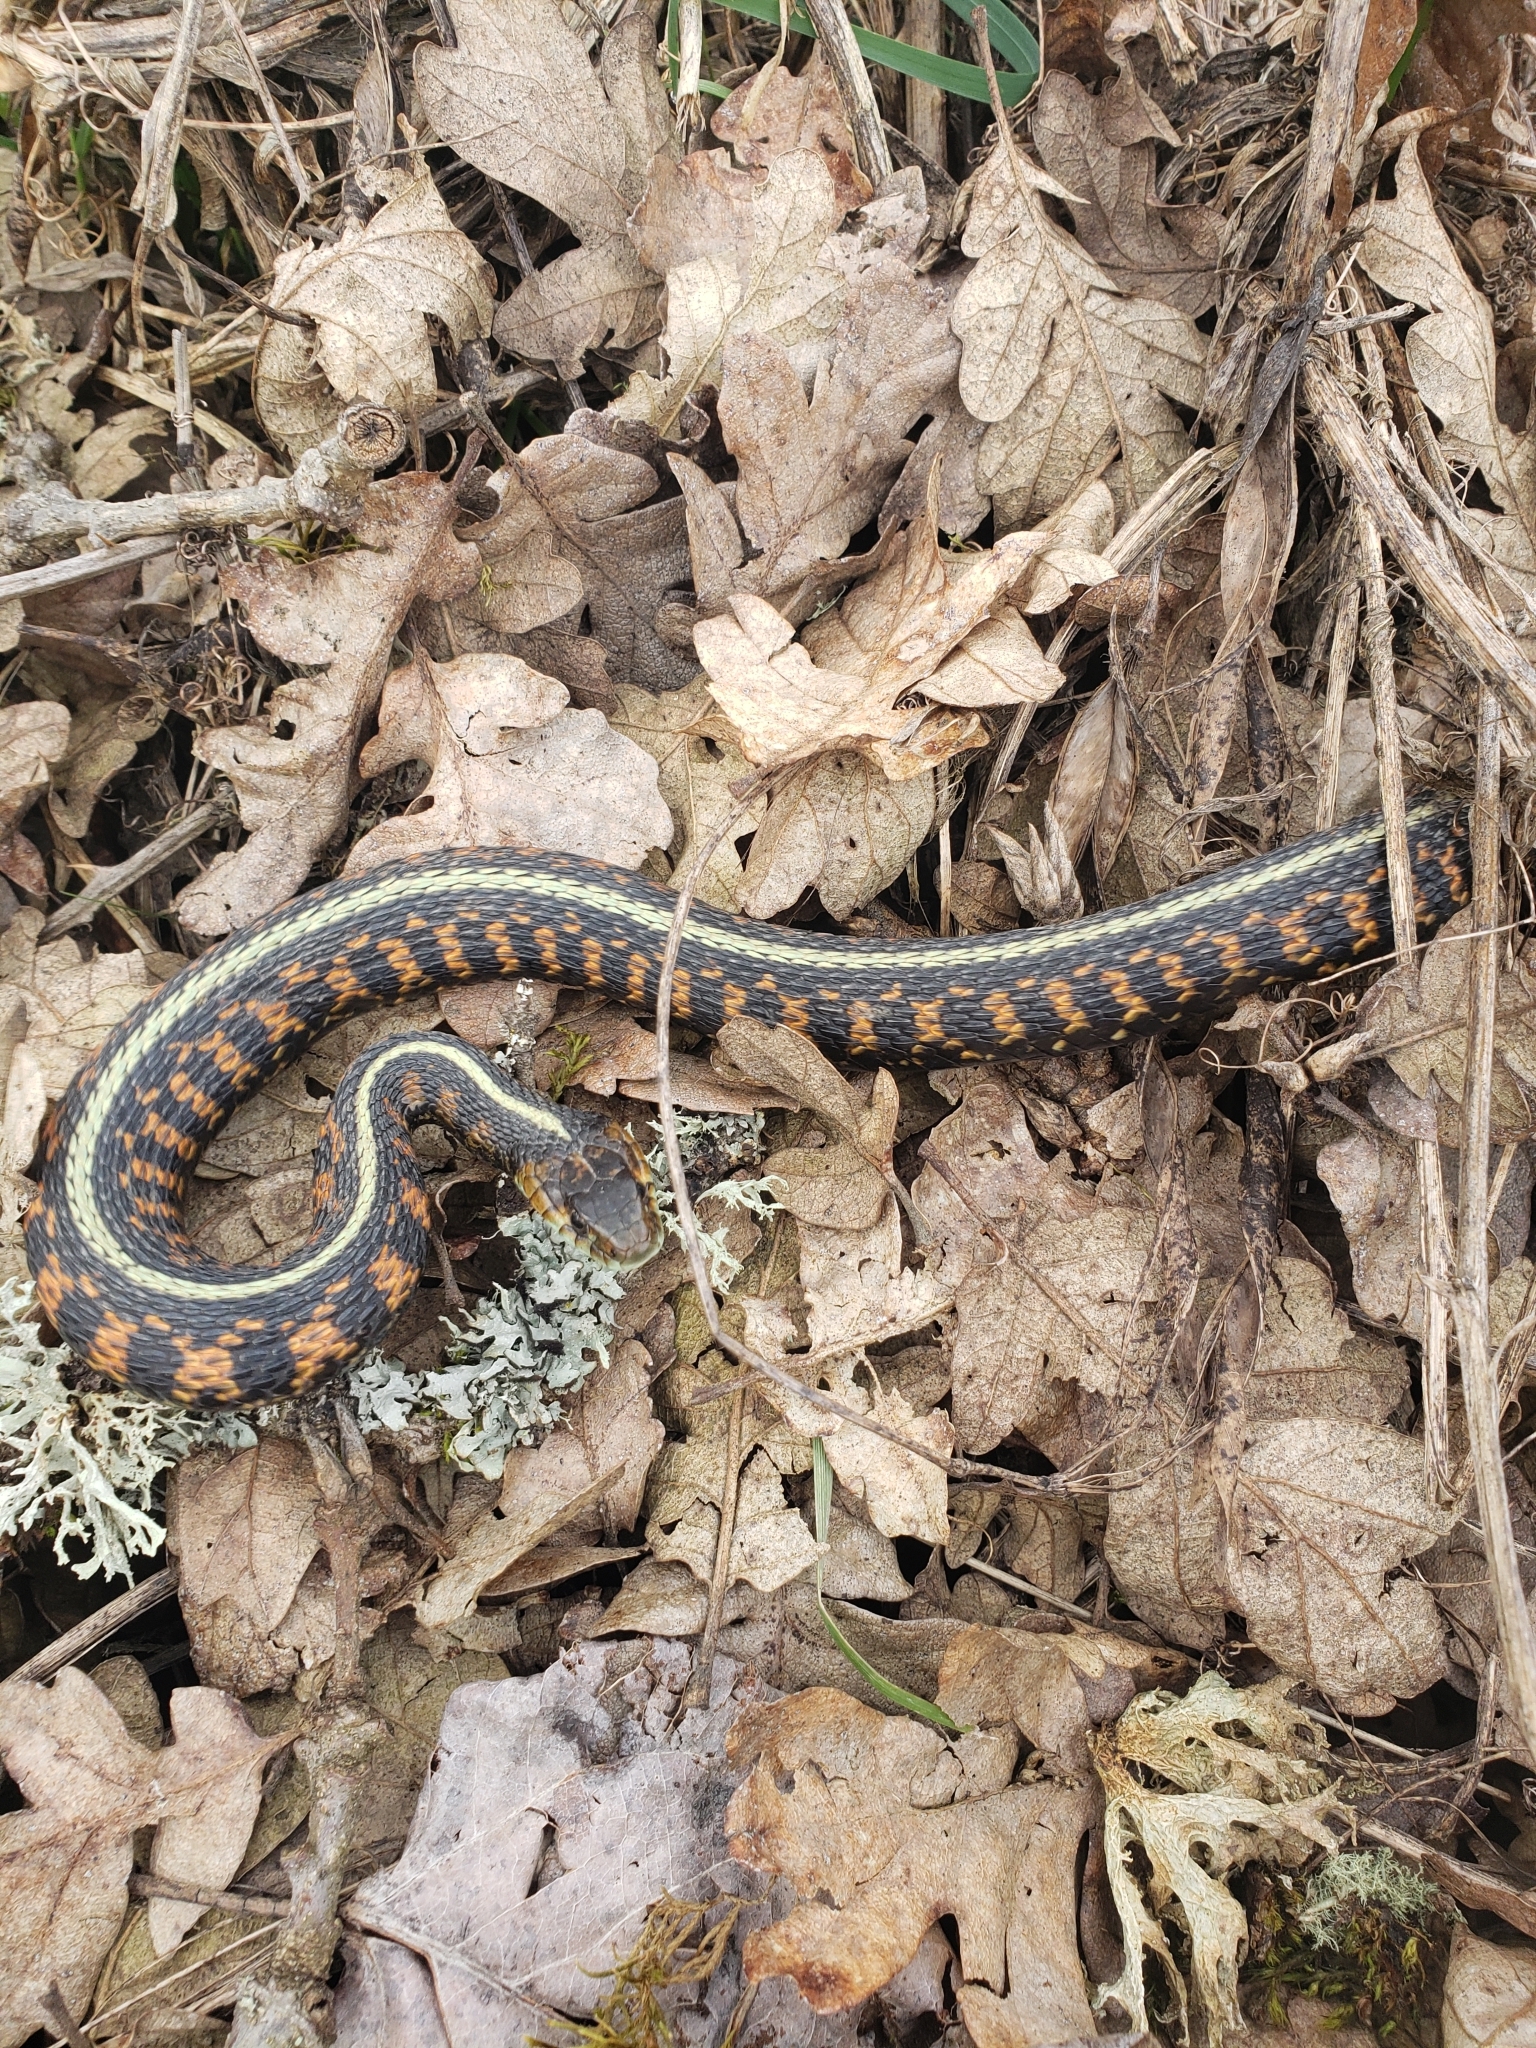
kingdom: Animalia
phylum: Chordata
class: Squamata
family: Colubridae
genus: Thamnophis
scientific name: Thamnophis sirtalis
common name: Common garter snake
